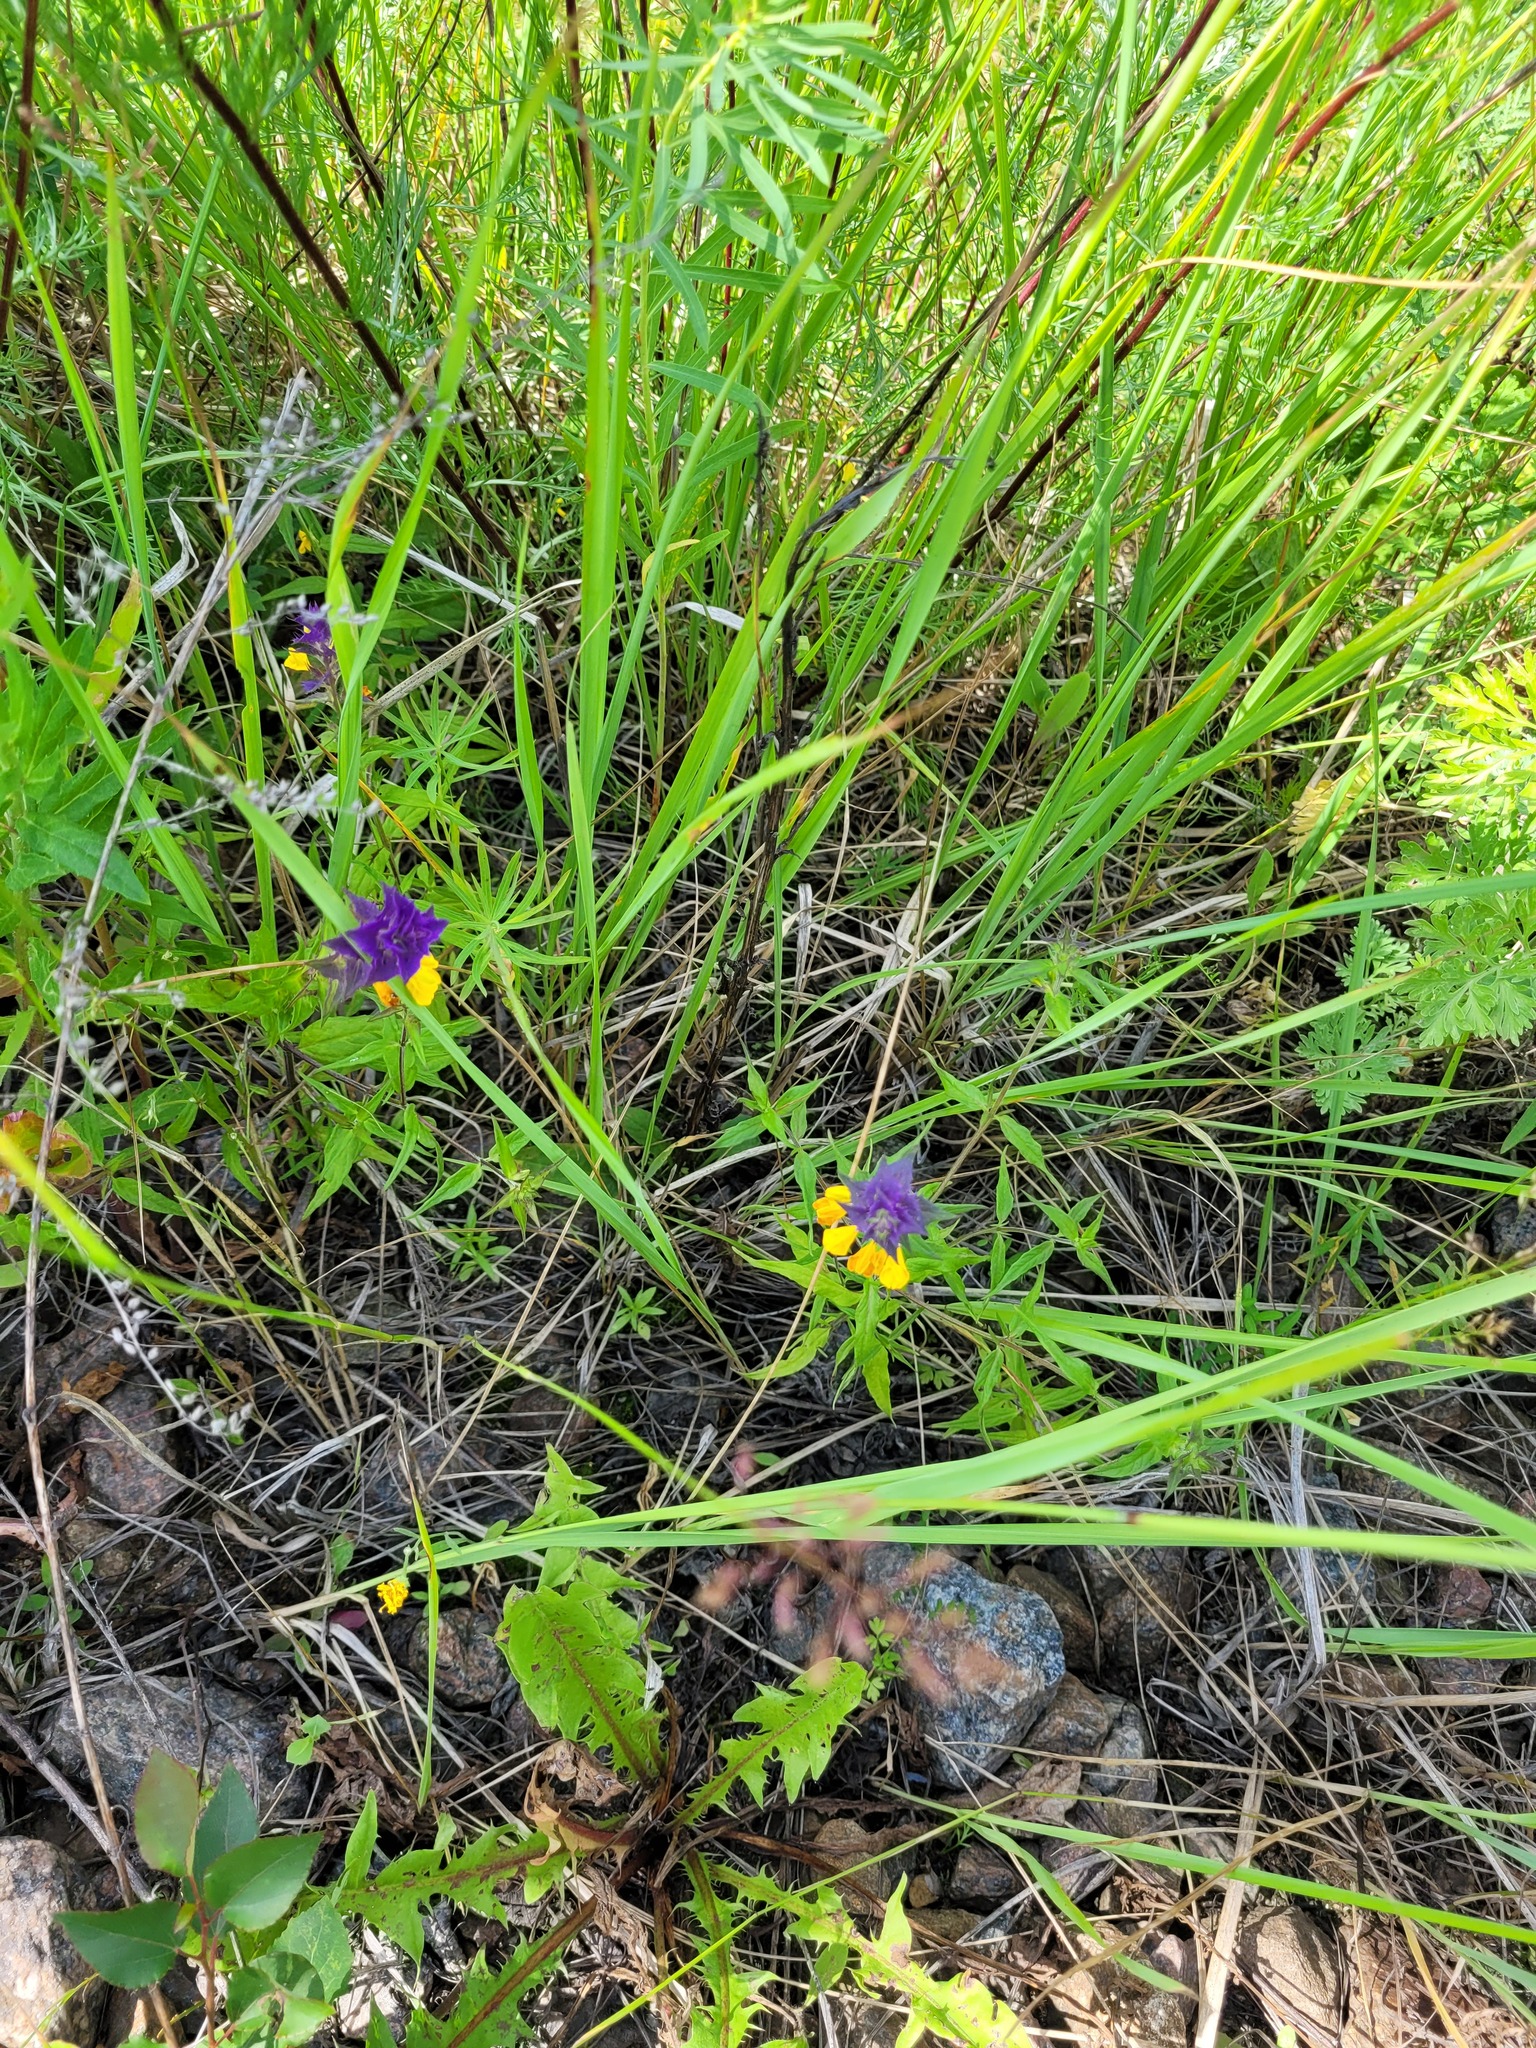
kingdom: Plantae
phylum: Tracheophyta
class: Magnoliopsida
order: Lamiales
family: Orobanchaceae
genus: Melampyrum
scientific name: Melampyrum nemorosum
